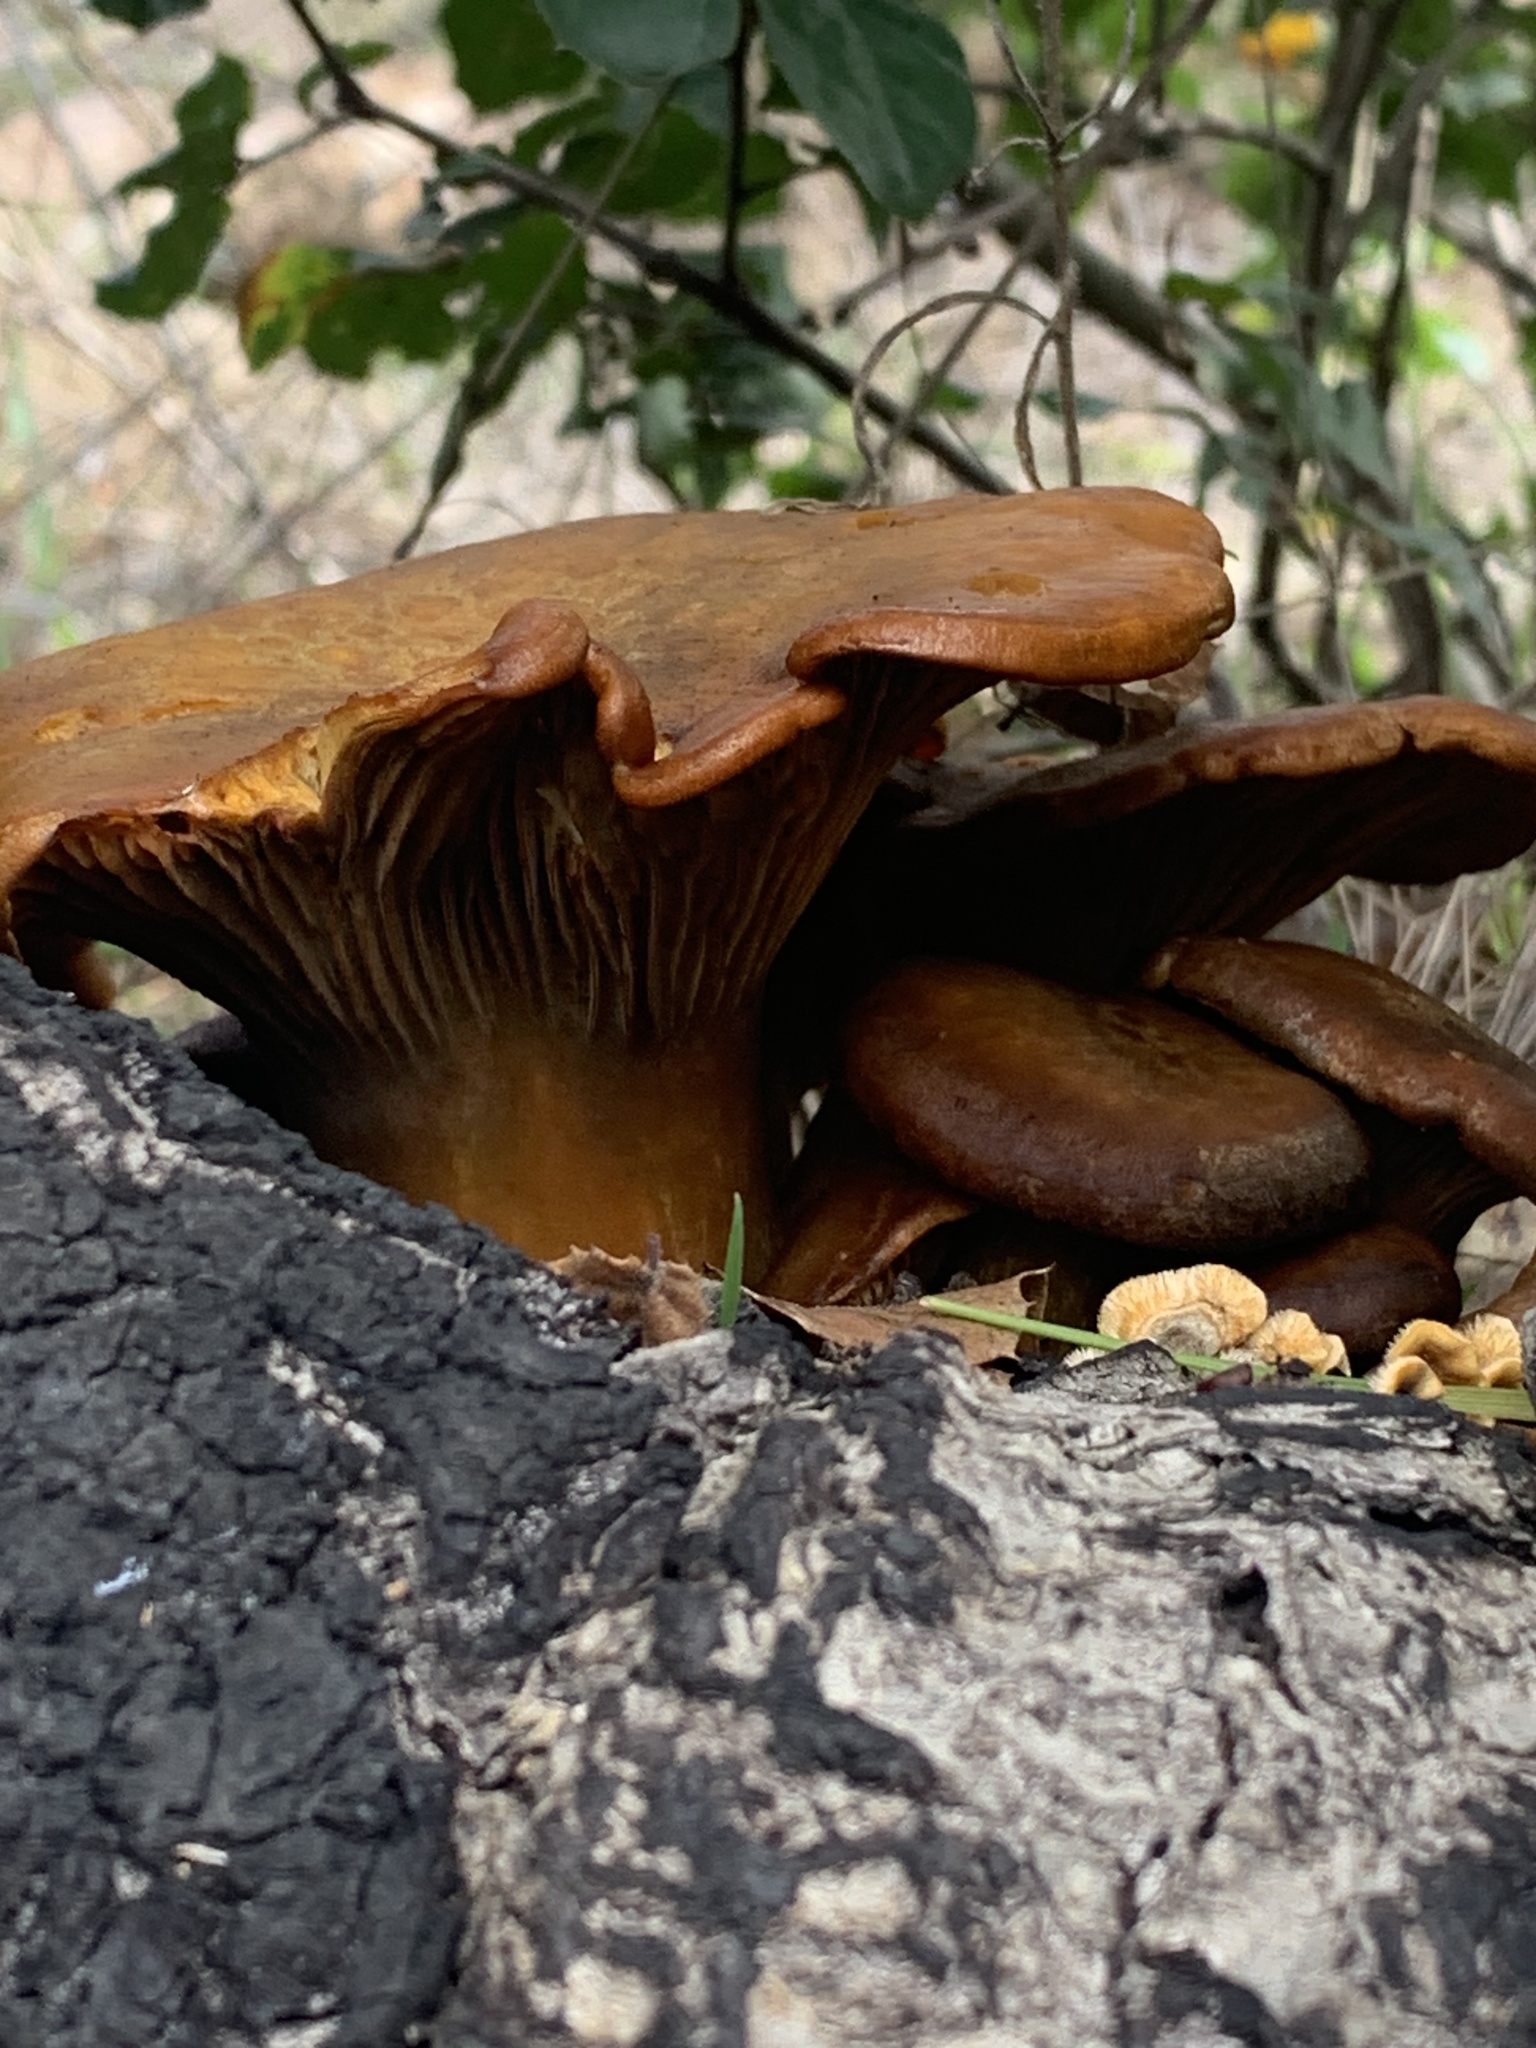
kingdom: Fungi
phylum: Basidiomycota
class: Agaricomycetes
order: Agaricales
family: Omphalotaceae
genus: Omphalotus
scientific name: Omphalotus olivascens
